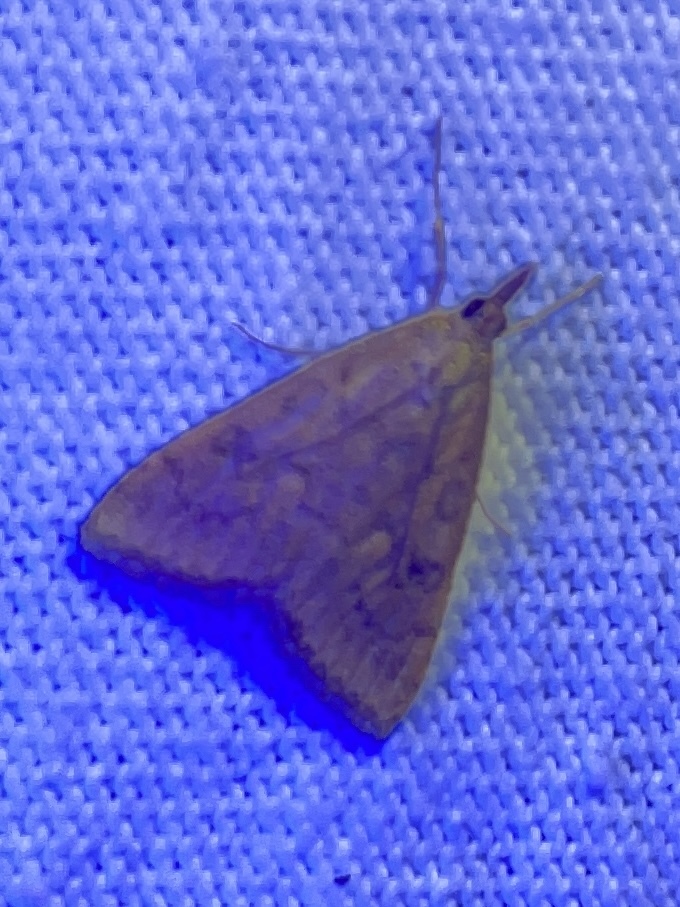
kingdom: Animalia
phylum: Arthropoda
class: Insecta
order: Lepidoptera
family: Crambidae
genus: Udea
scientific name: Udea rubigalis
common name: Celery leaftier moth
